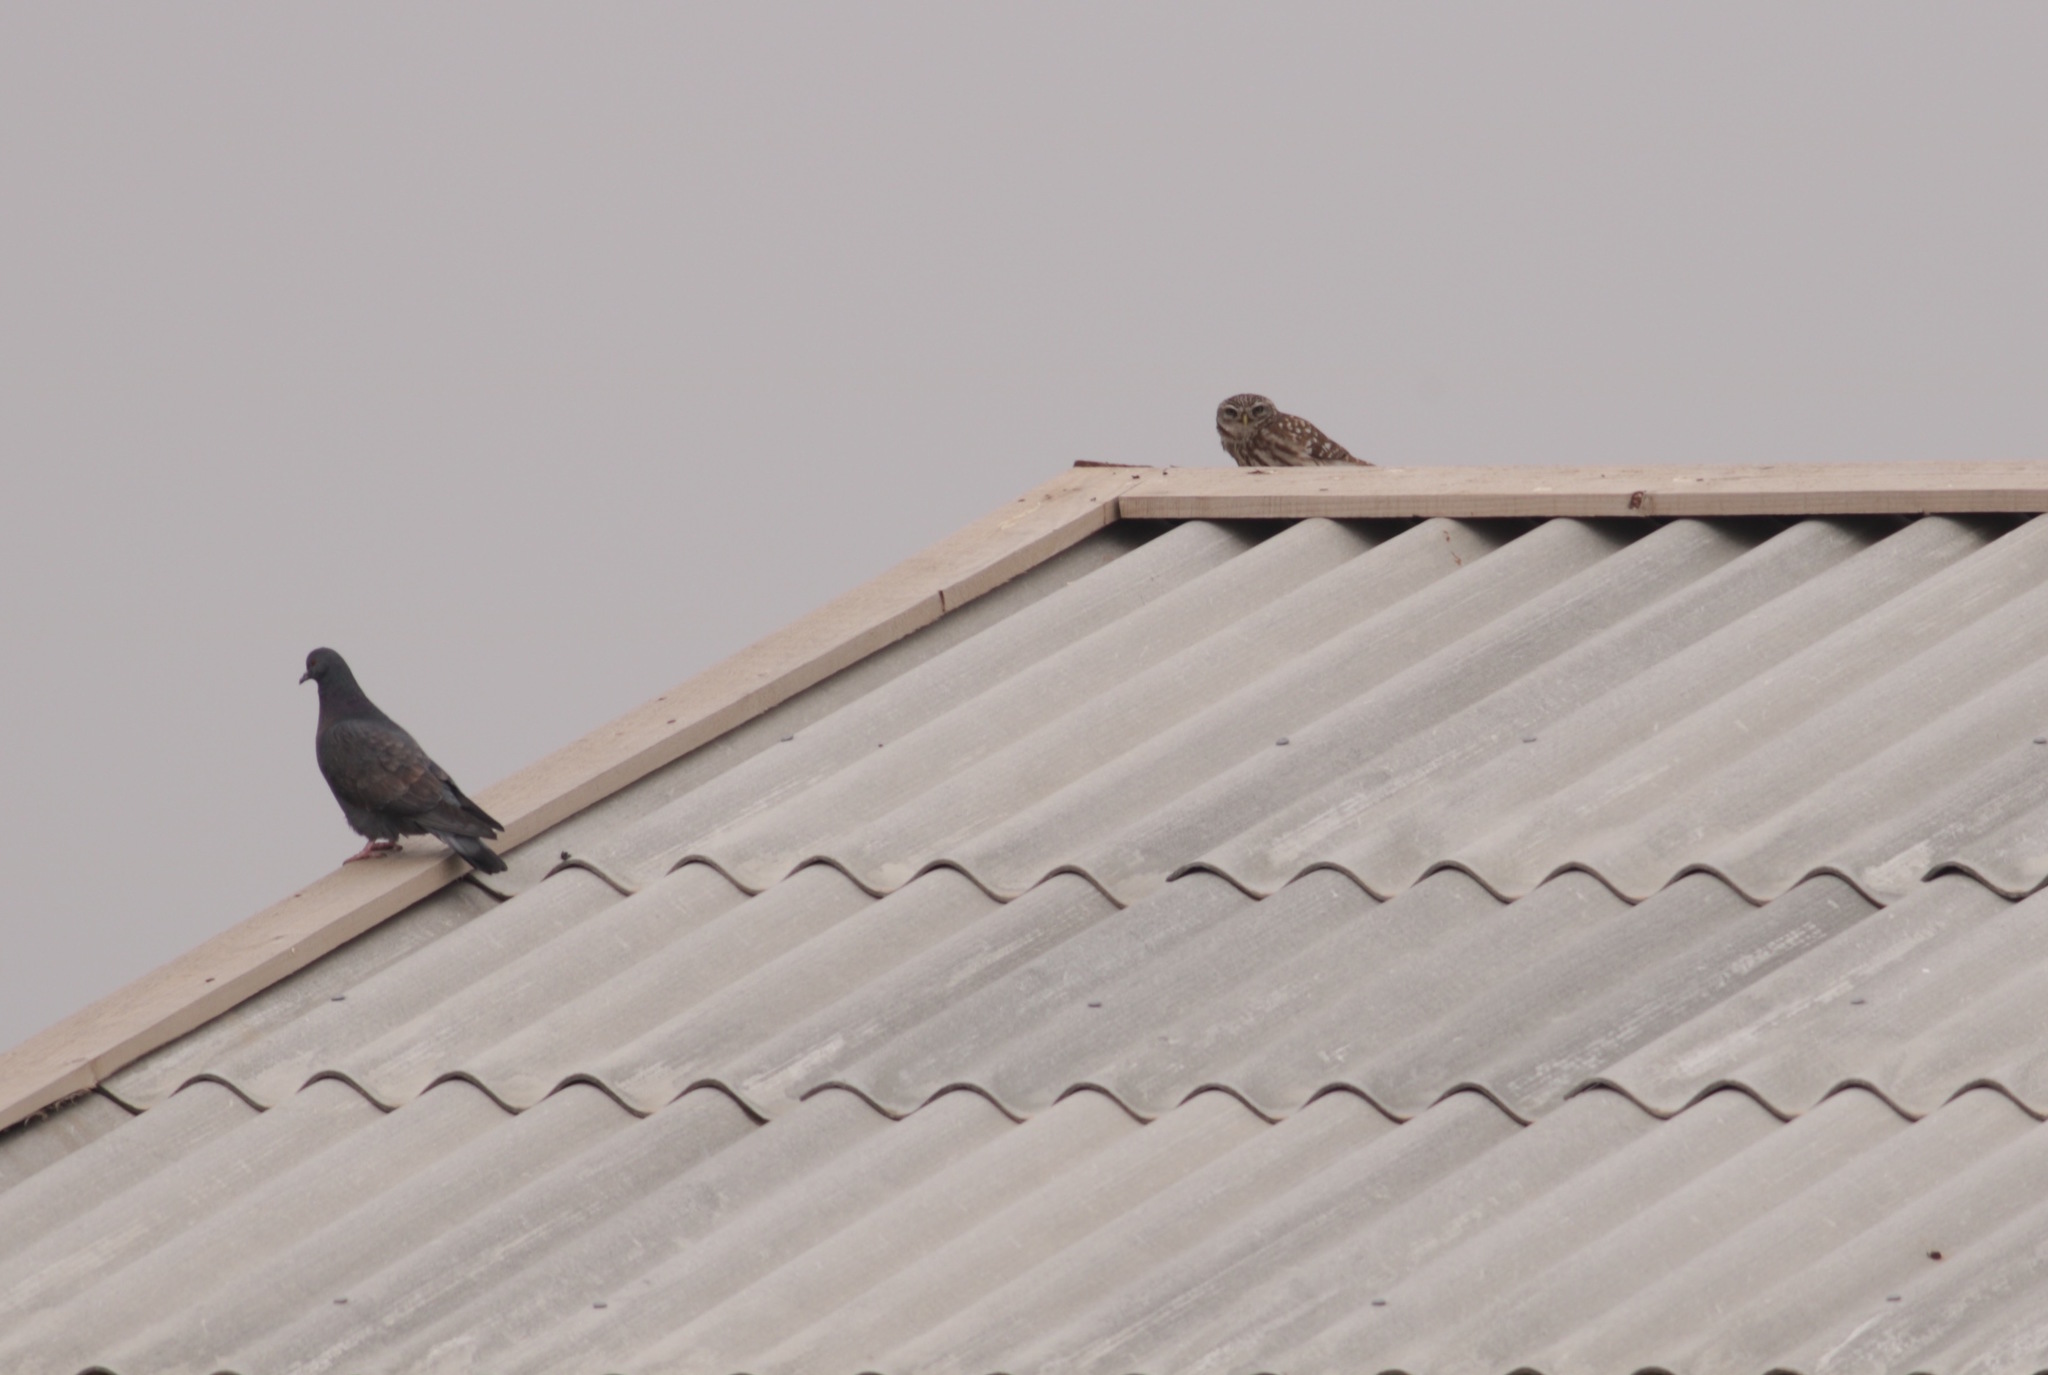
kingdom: Animalia
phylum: Chordata
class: Aves
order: Strigiformes
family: Strigidae
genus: Athene
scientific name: Athene noctua
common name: Little owl
